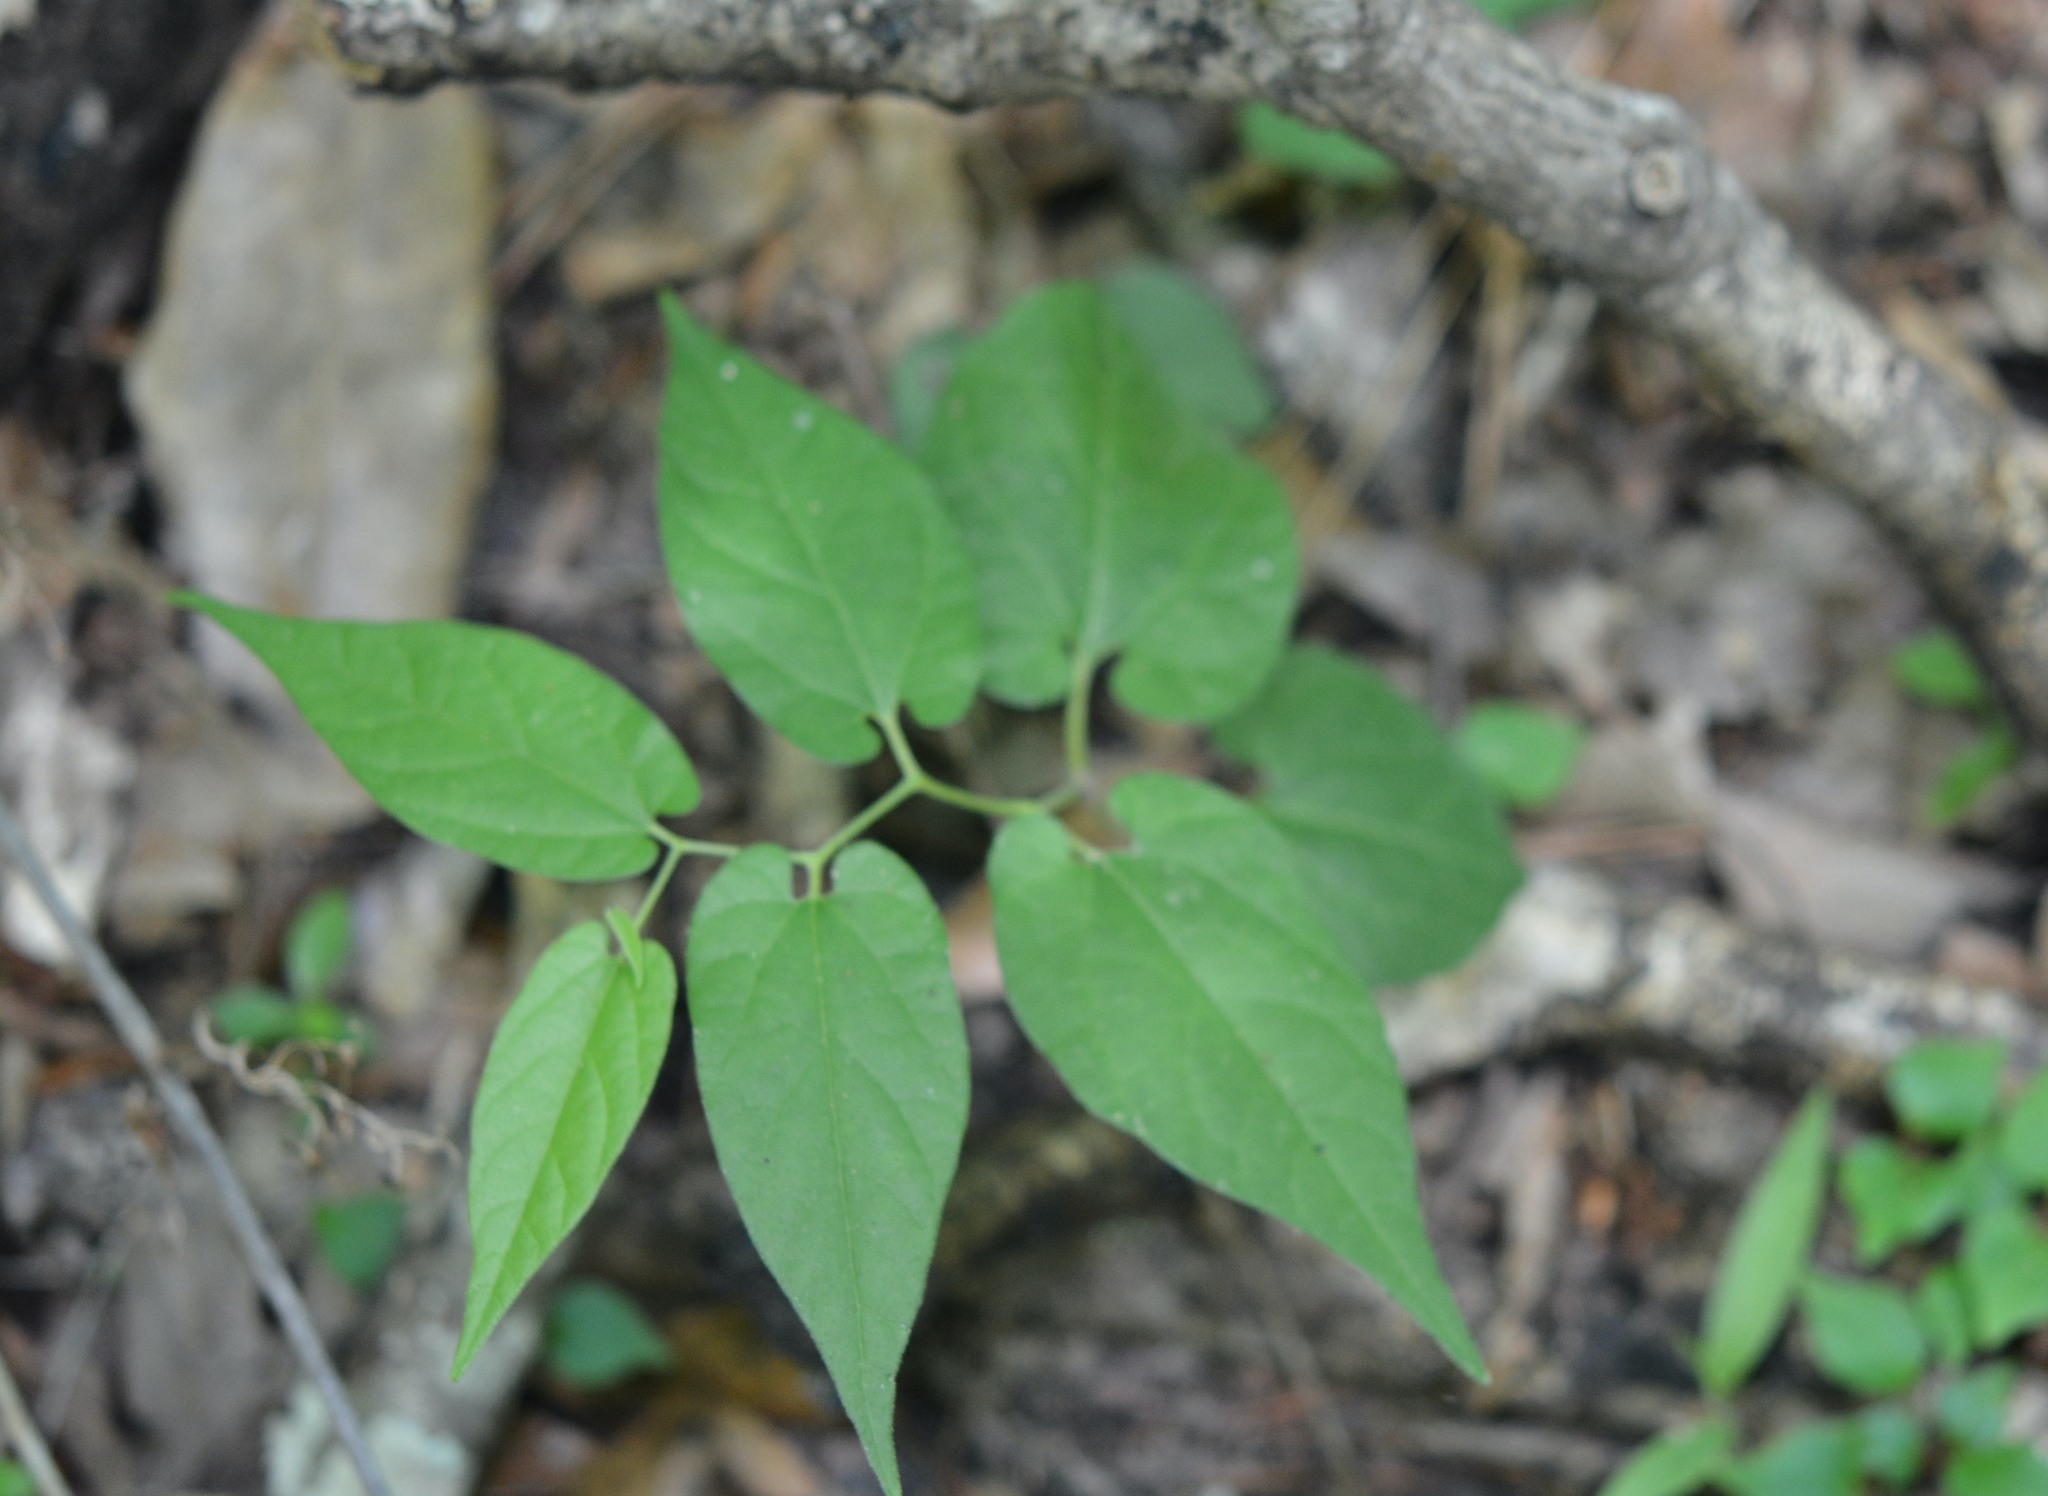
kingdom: Plantae
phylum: Tracheophyta
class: Magnoliopsida
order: Piperales
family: Aristolochiaceae
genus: Endodeca
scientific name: Endodeca serpentaria
